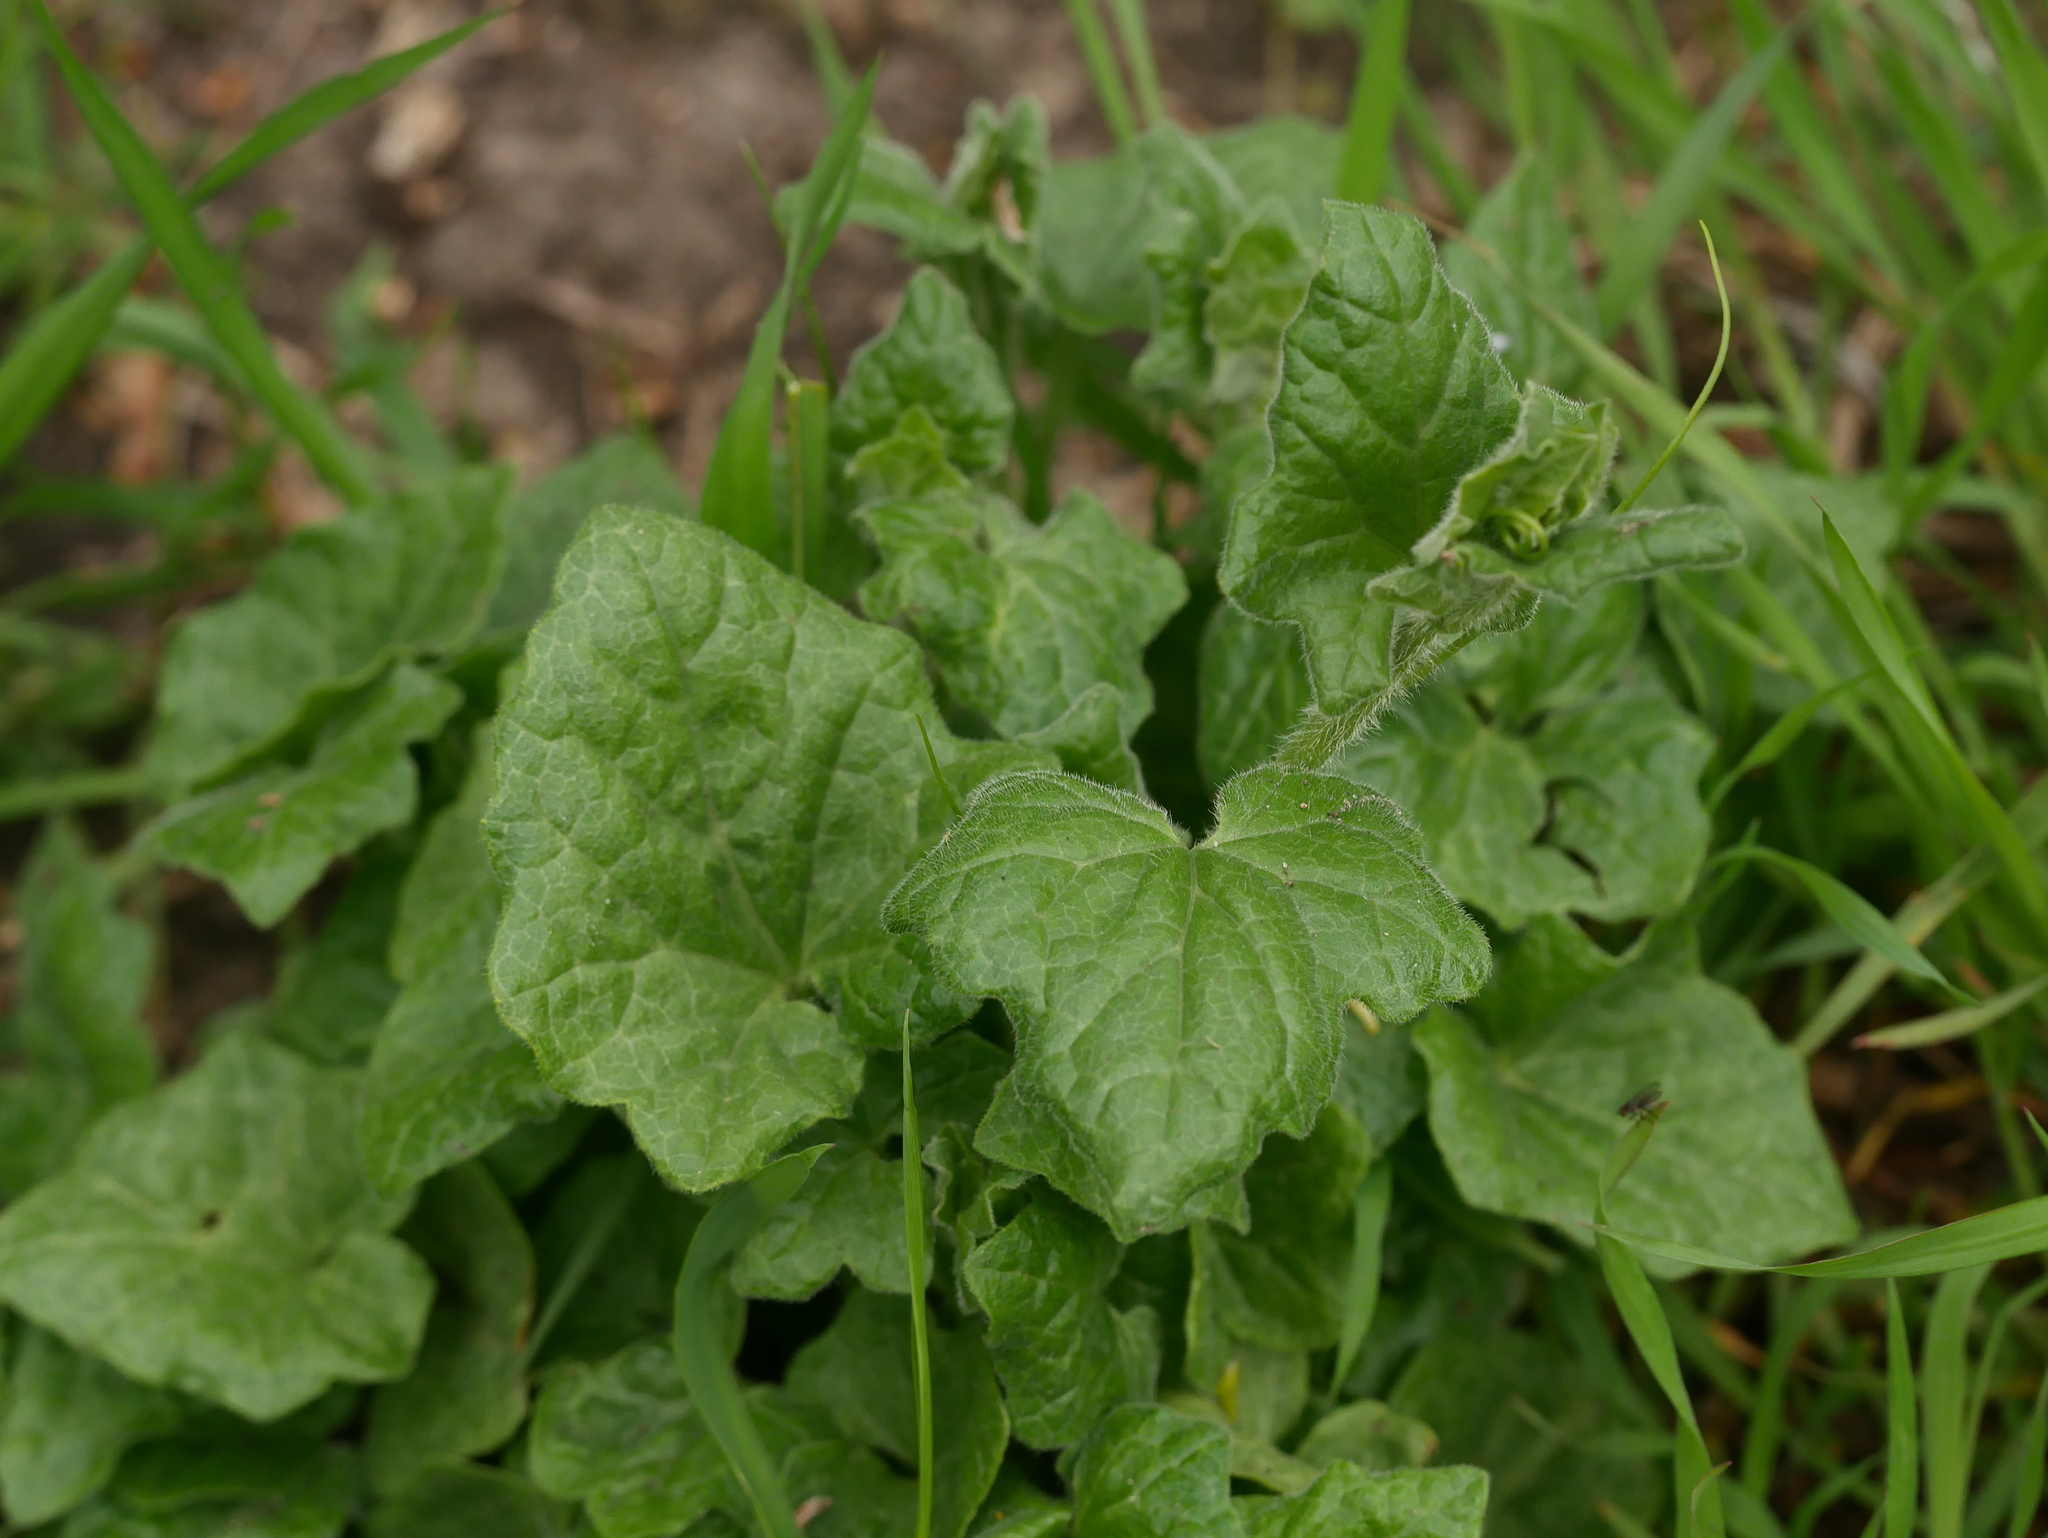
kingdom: Plantae
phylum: Tracheophyta
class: Magnoliopsida
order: Cucurbitales
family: Cucurbitaceae
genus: Bryonia
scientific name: Bryonia cretica
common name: Cretan bryony
